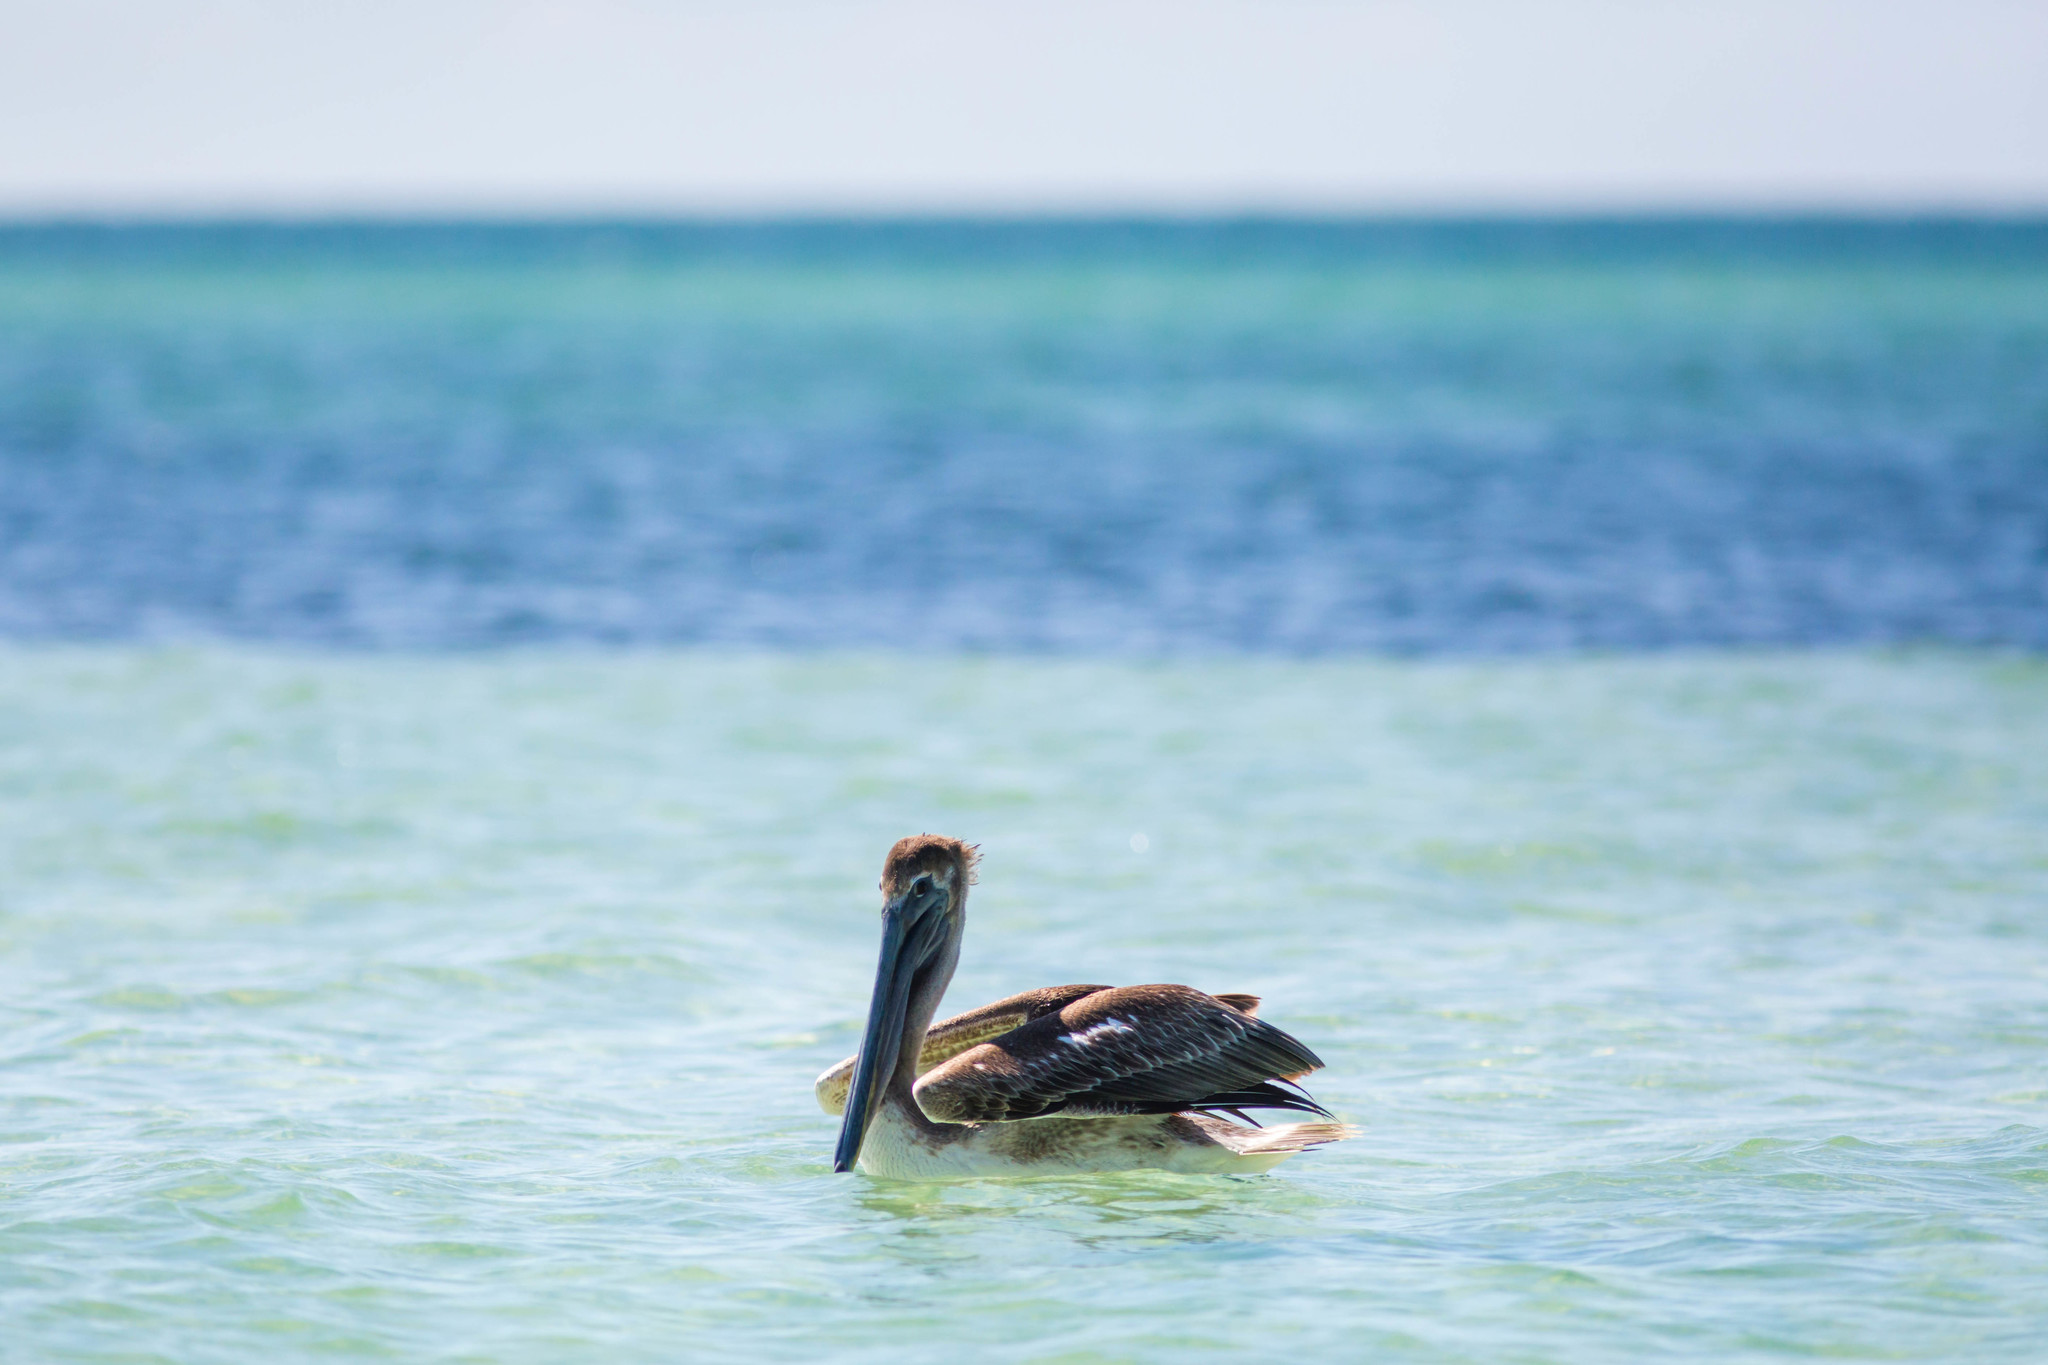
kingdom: Animalia
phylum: Chordata
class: Aves
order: Pelecaniformes
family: Pelecanidae
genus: Pelecanus
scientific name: Pelecanus occidentalis
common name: Brown pelican
